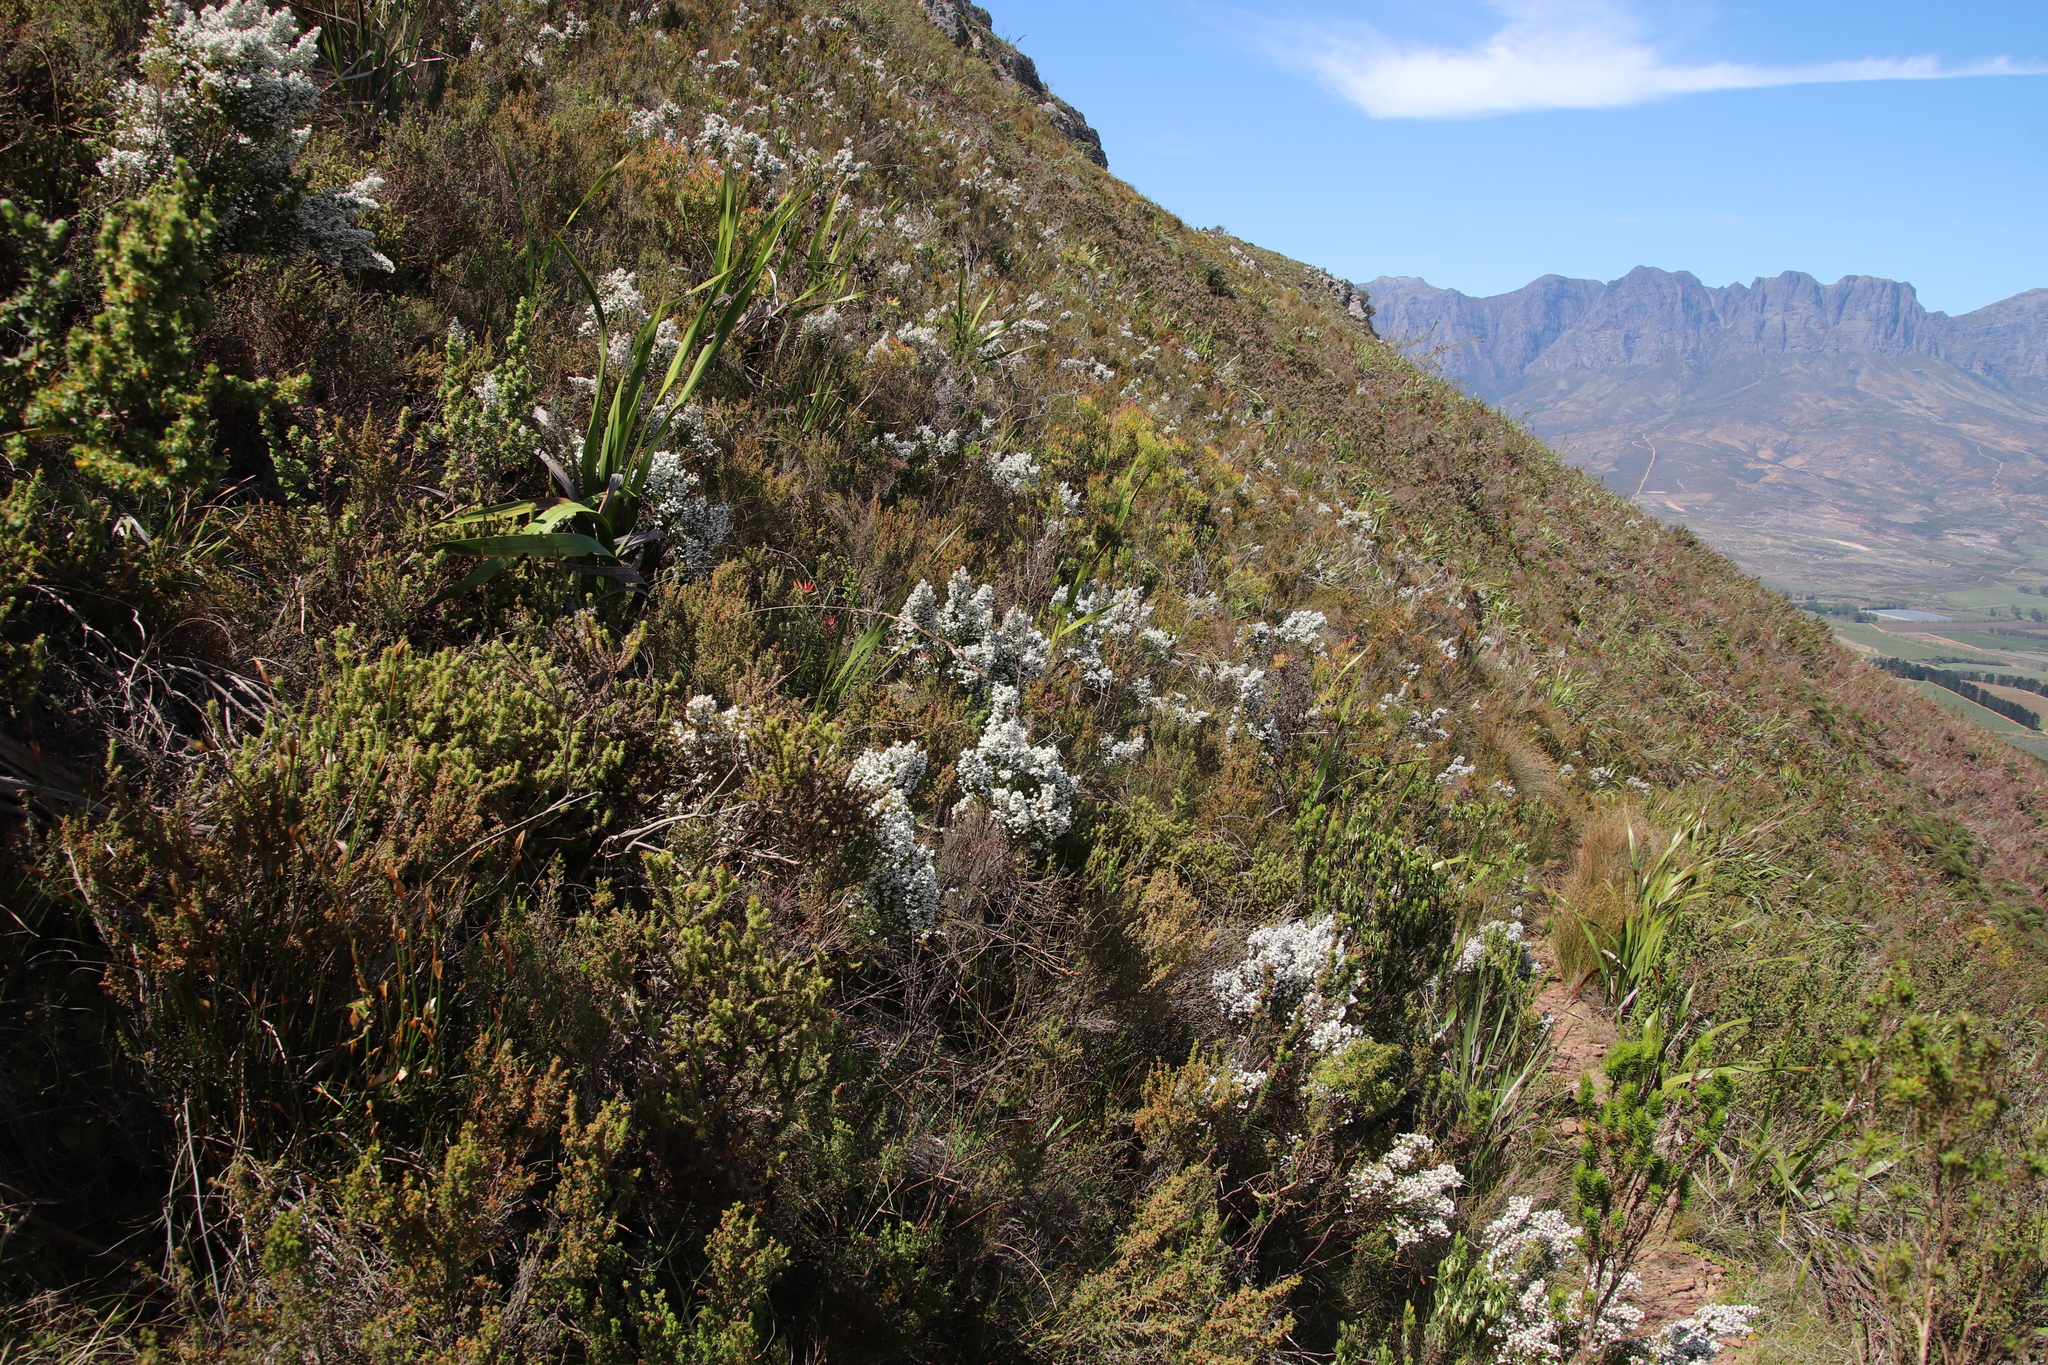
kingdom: Plantae
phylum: Tracheophyta
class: Magnoliopsida
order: Ericales
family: Ericaceae
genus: Erica
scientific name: Erica calycina
